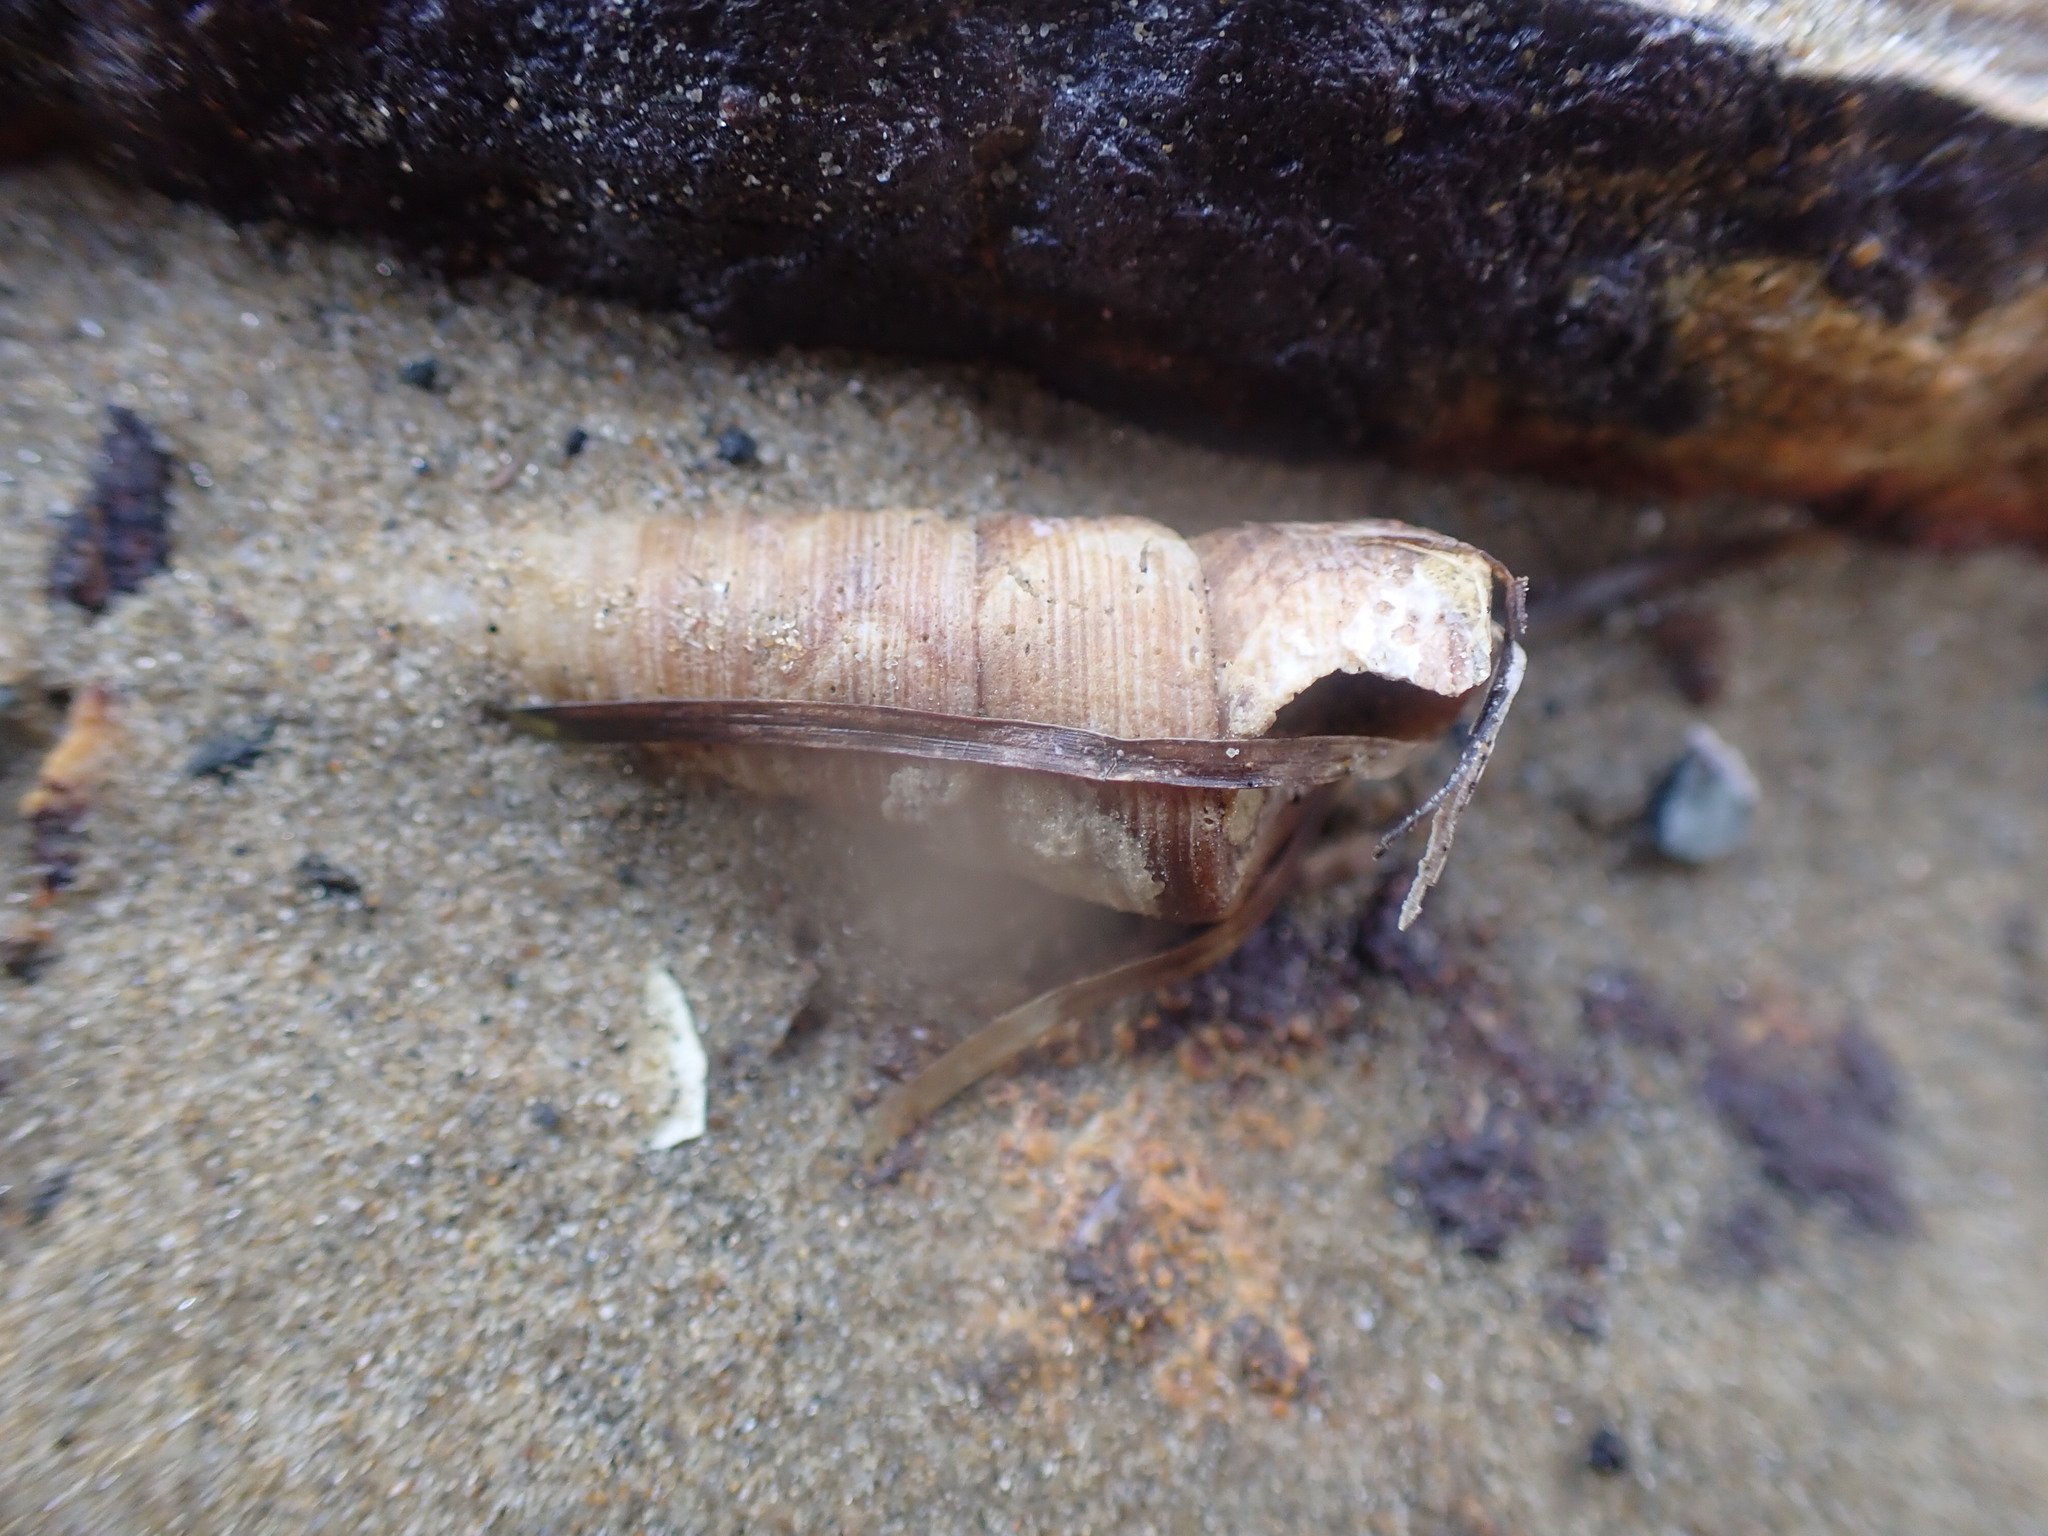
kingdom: Animalia
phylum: Mollusca
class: Gastropoda
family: Turritellidae
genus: Maoricolpus
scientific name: Maoricolpus roseus
